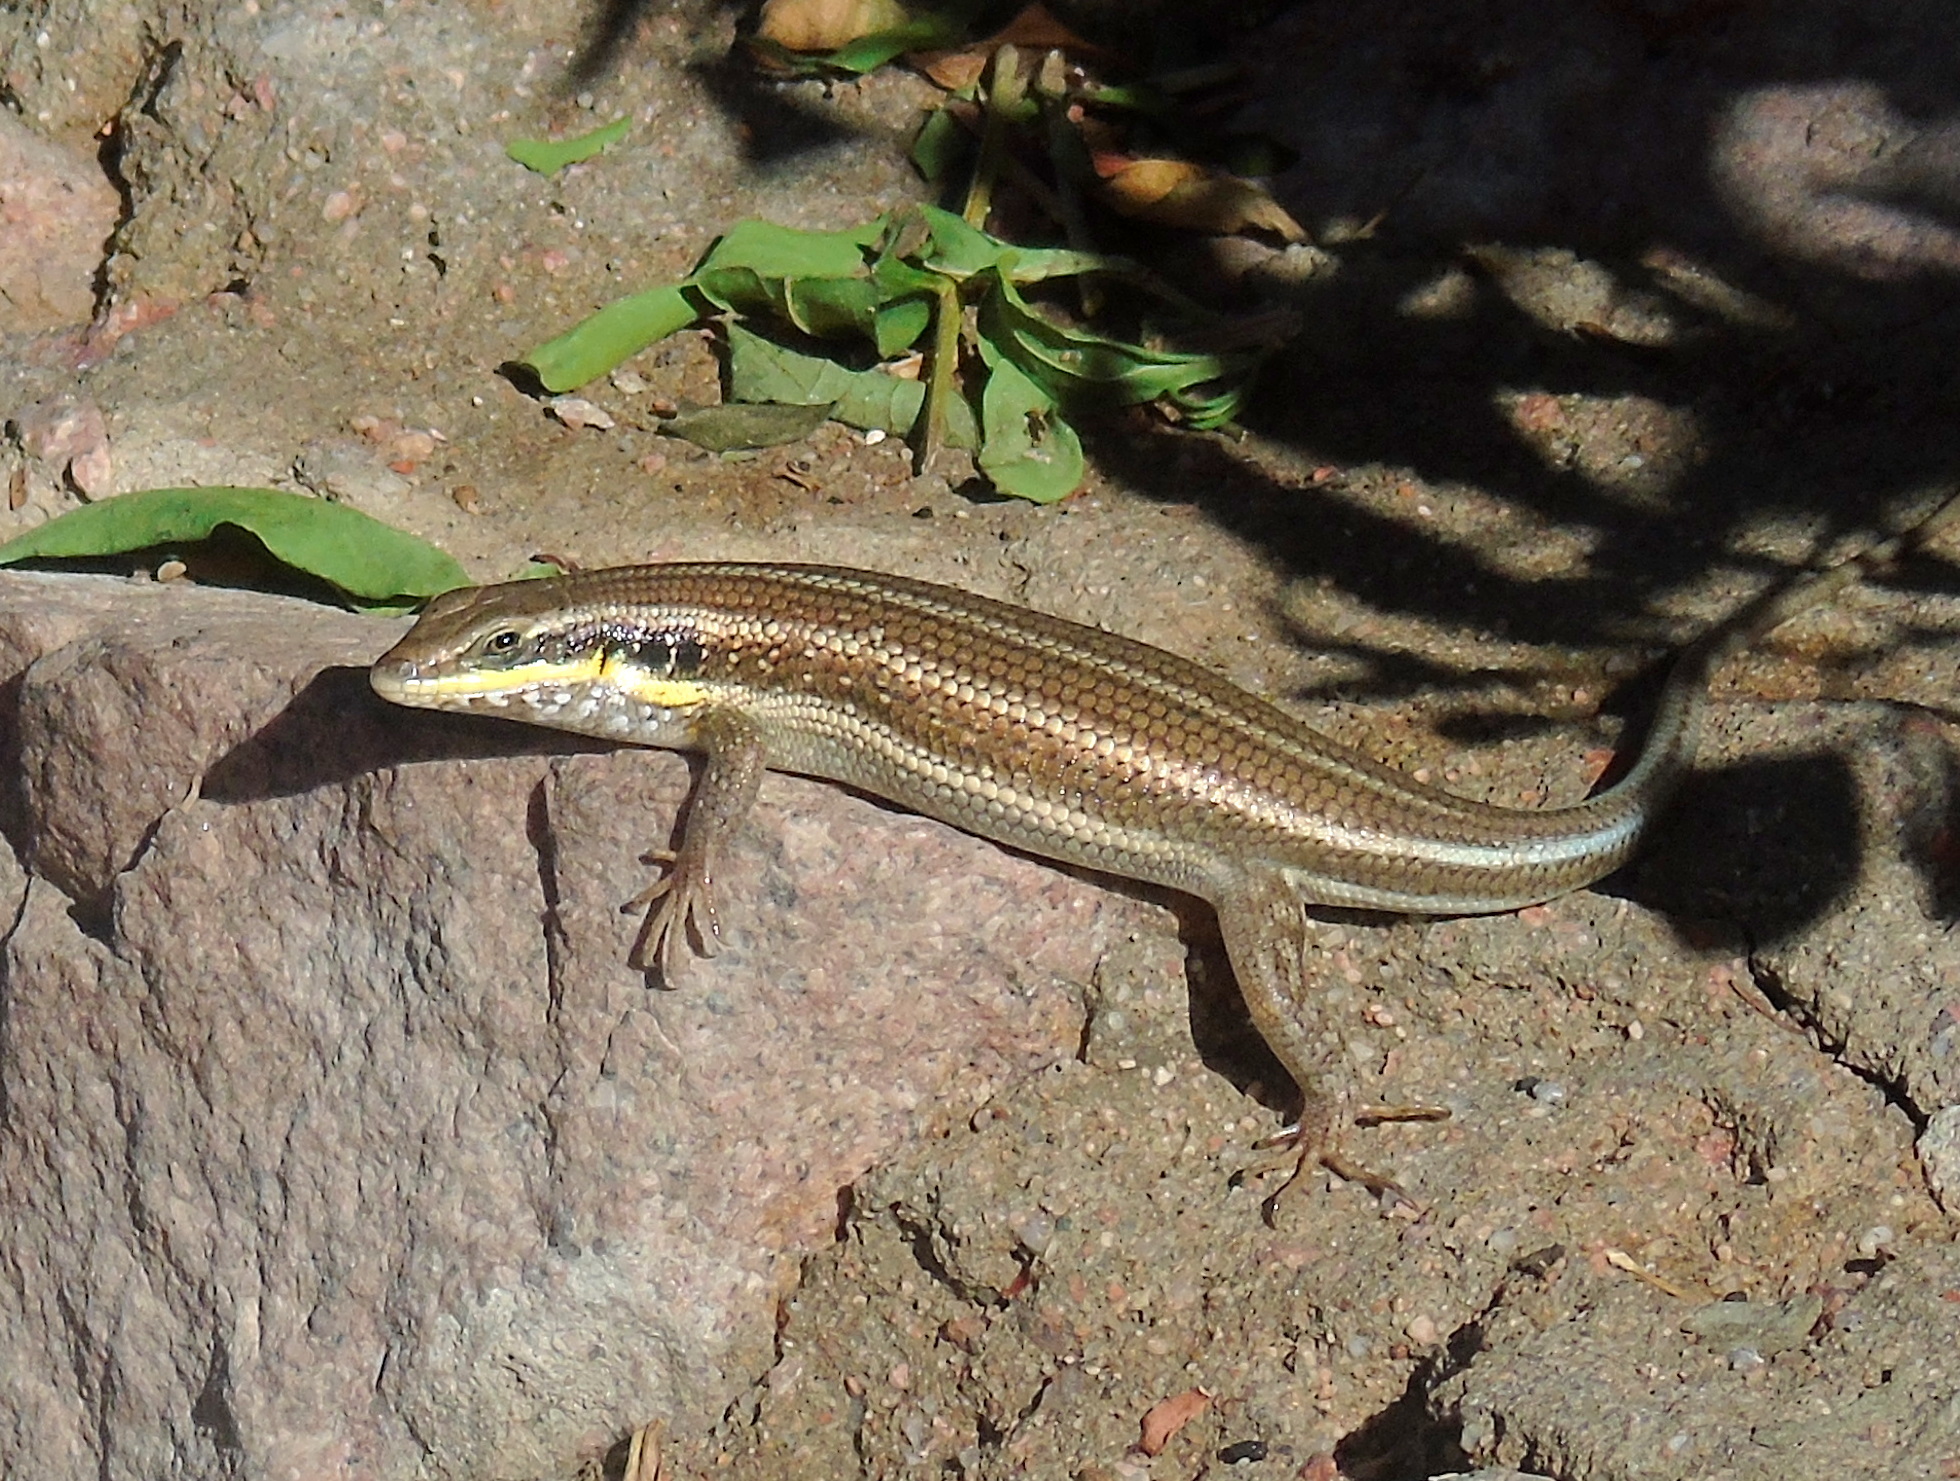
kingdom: Animalia
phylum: Chordata
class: Squamata
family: Scincidae
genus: Trachylepis
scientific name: Trachylepis quinquetaeniata
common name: African five-lined skink
